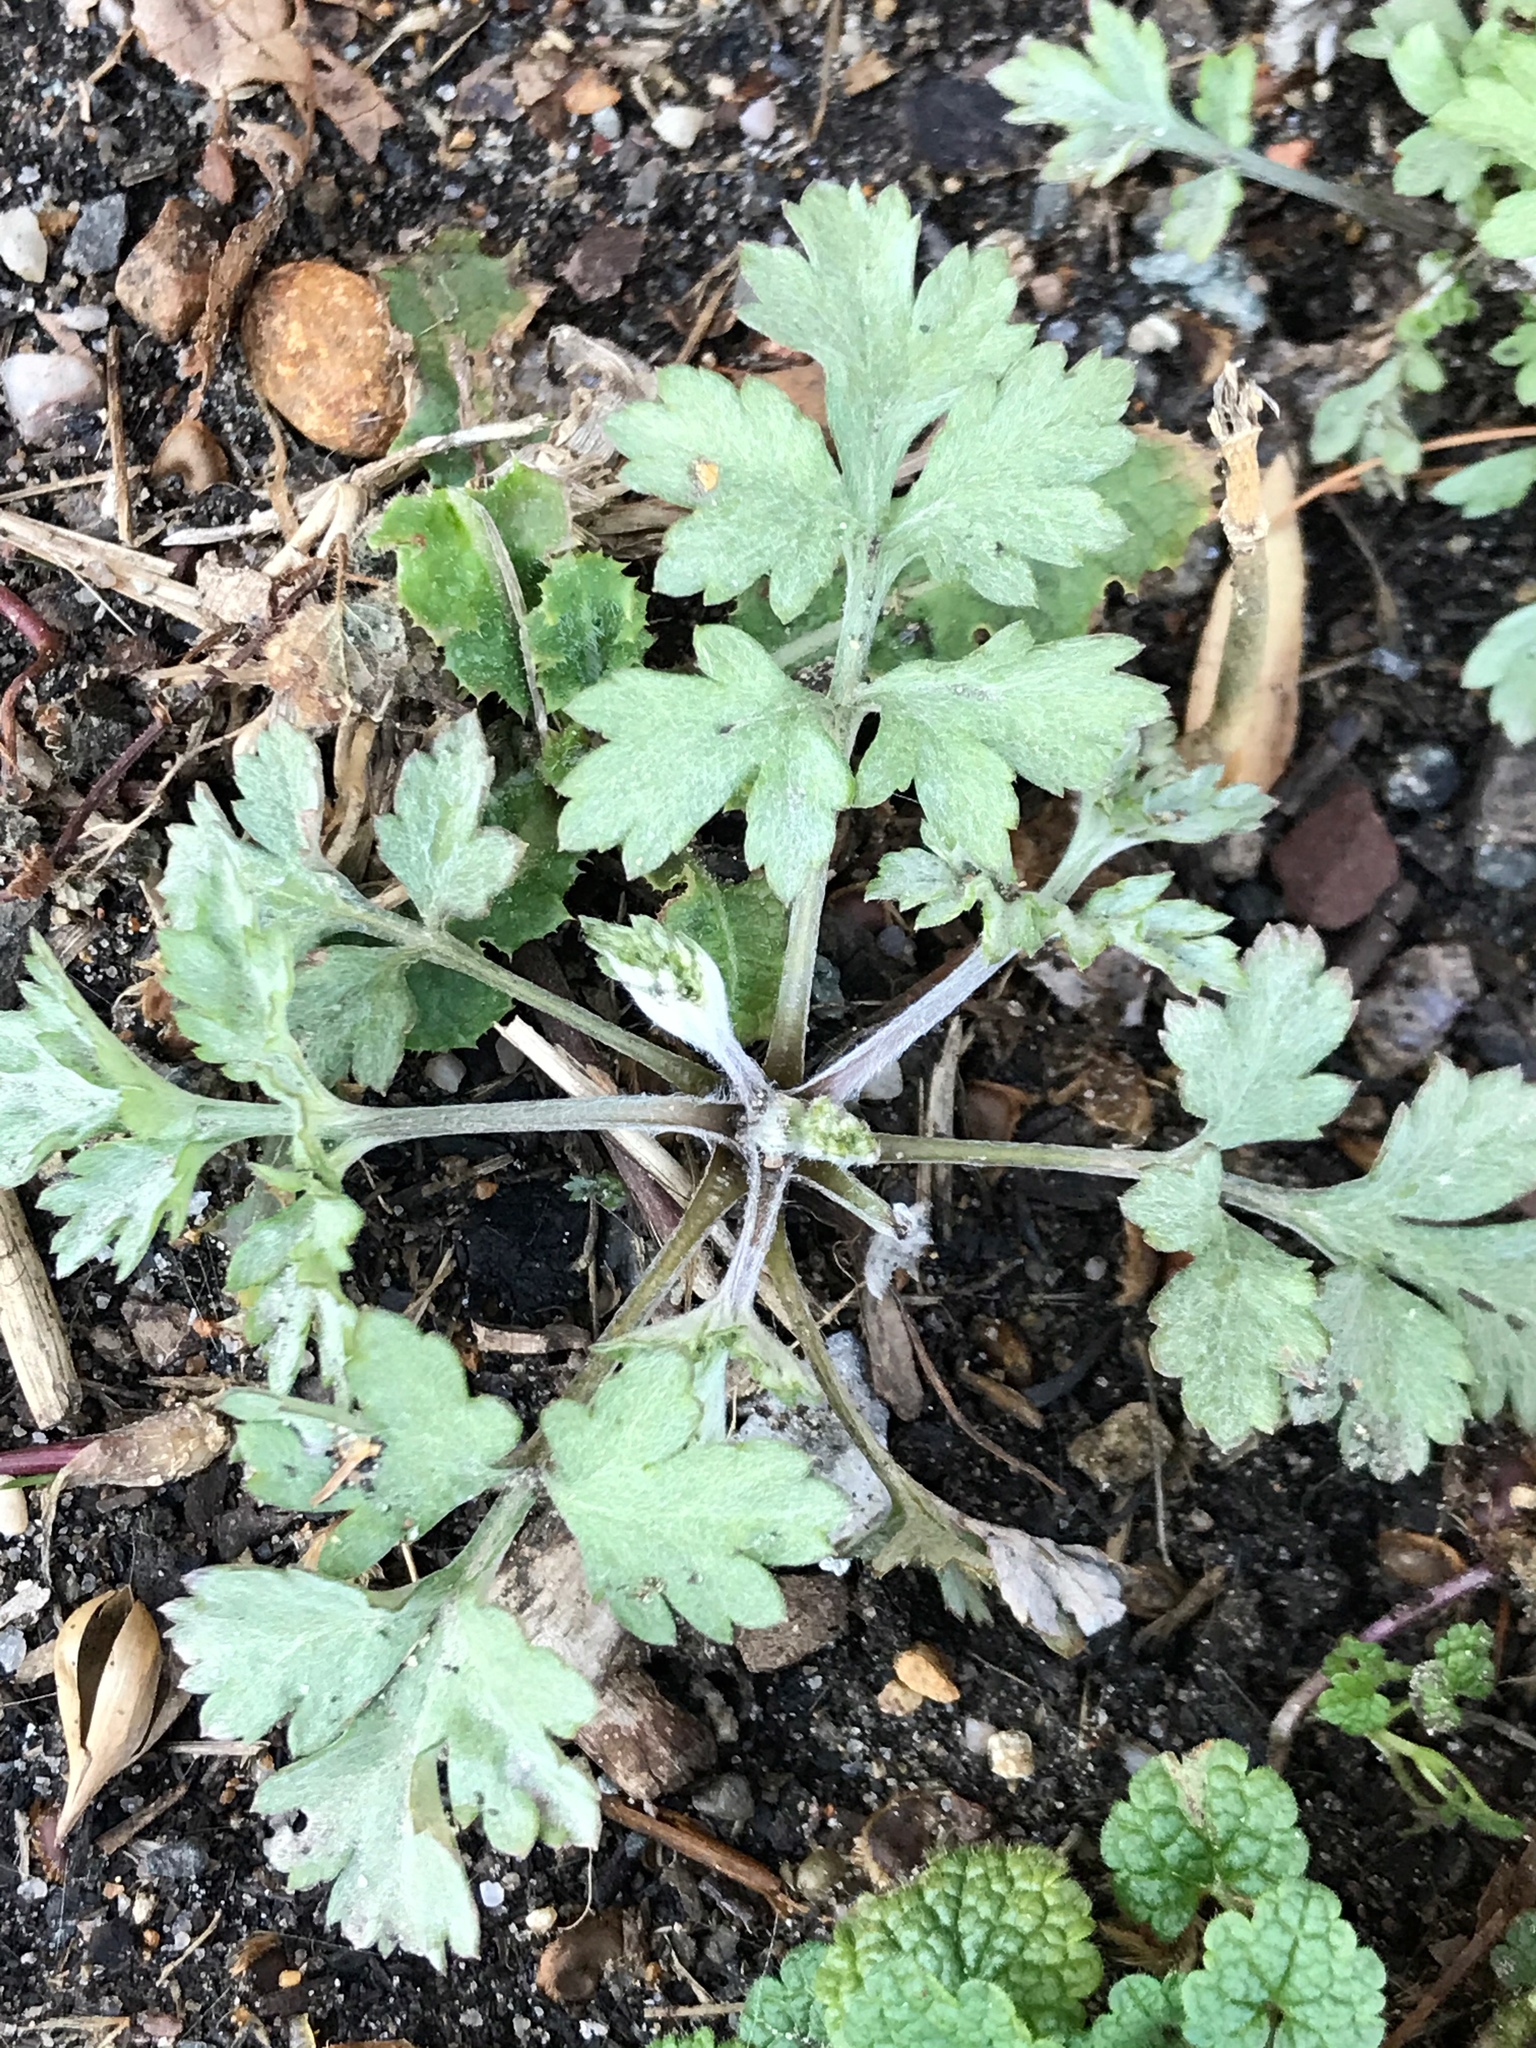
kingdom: Plantae
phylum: Tracheophyta
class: Magnoliopsida
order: Asterales
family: Asteraceae
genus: Artemisia
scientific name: Artemisia vulgaris
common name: Mugwort
